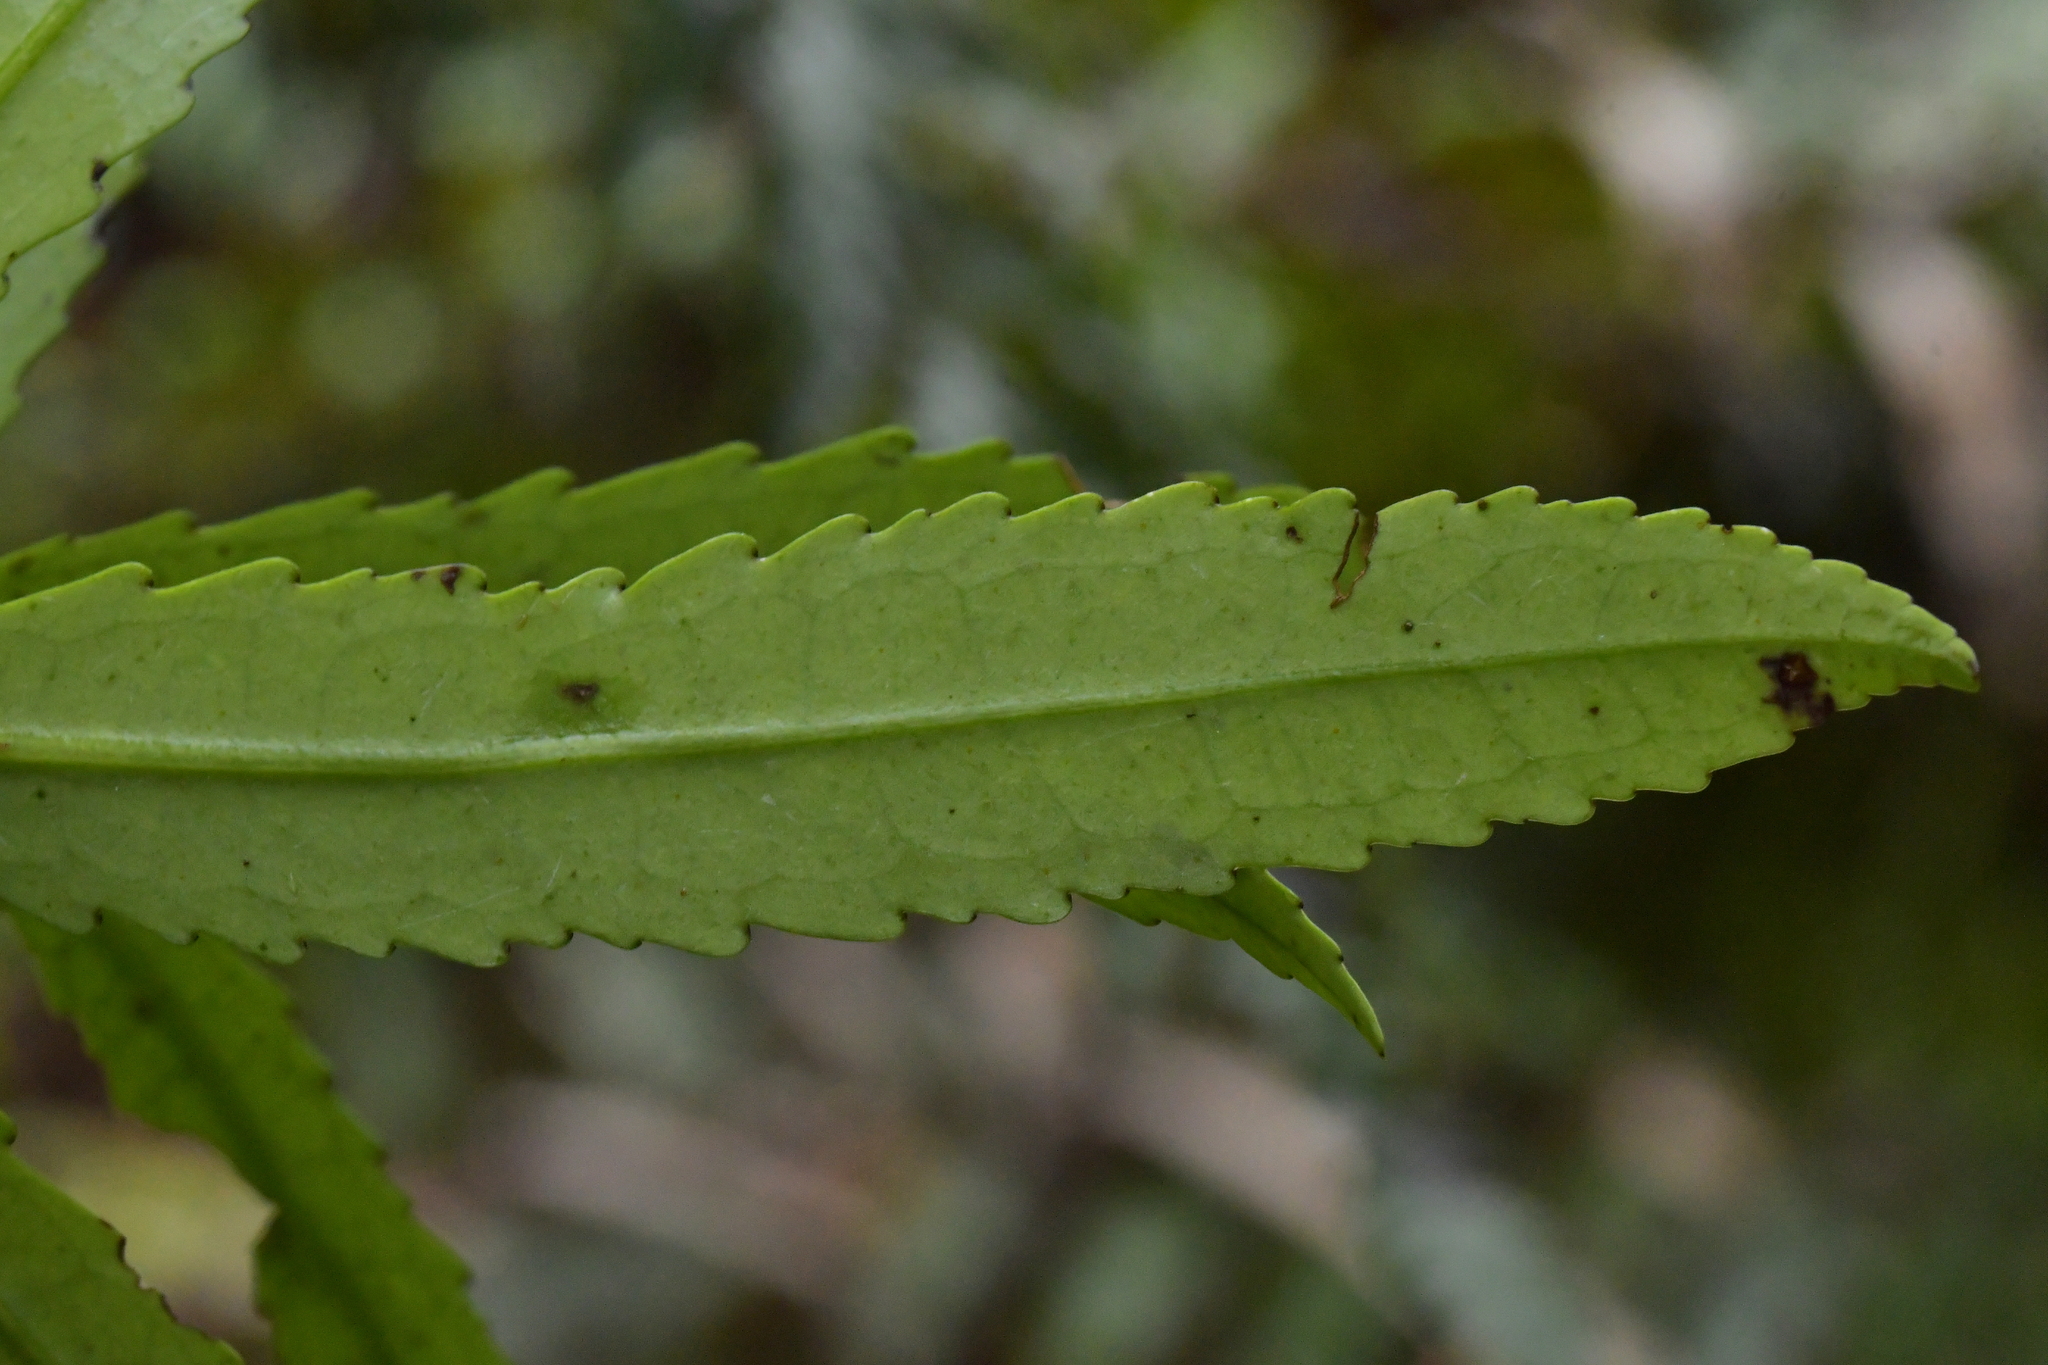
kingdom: Plantae
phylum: Tracheophyta
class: Magnoliopsida
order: Crossosomatales
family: Ixerbaceae
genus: Ixerba
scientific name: Ixerba brexioides
